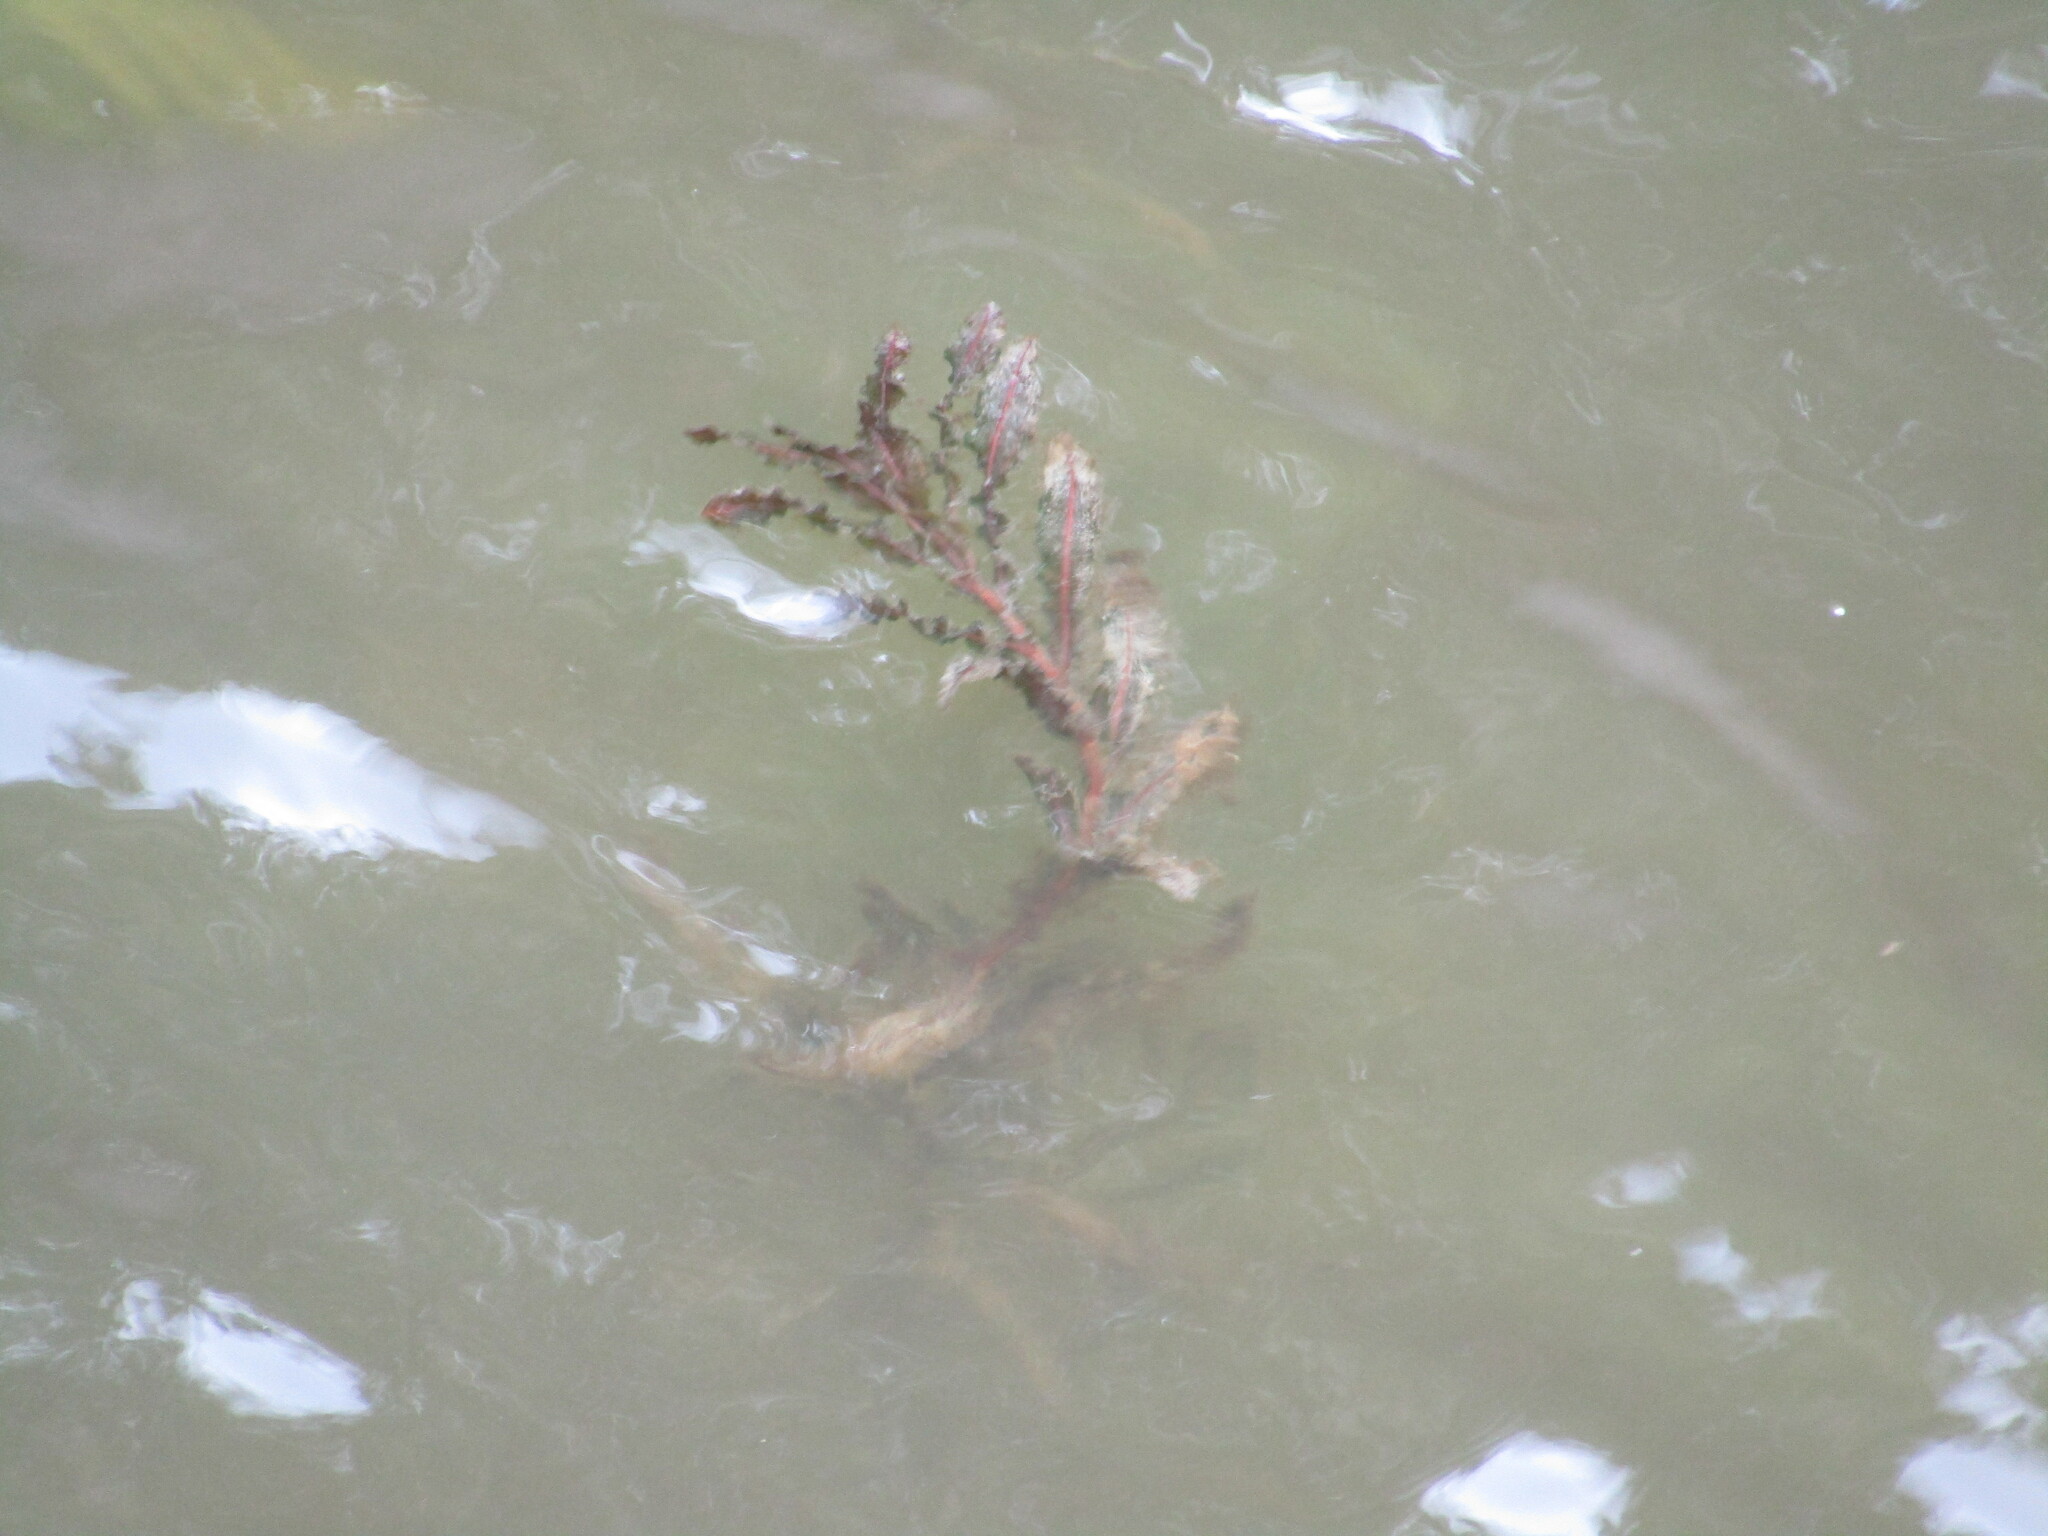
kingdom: Plantae
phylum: Tracheophyta
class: Liliopsida
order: Alismatales
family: Potamogetonaceae
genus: Potamogeton
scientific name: Potamogeton crispus
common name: Curled pondweed
